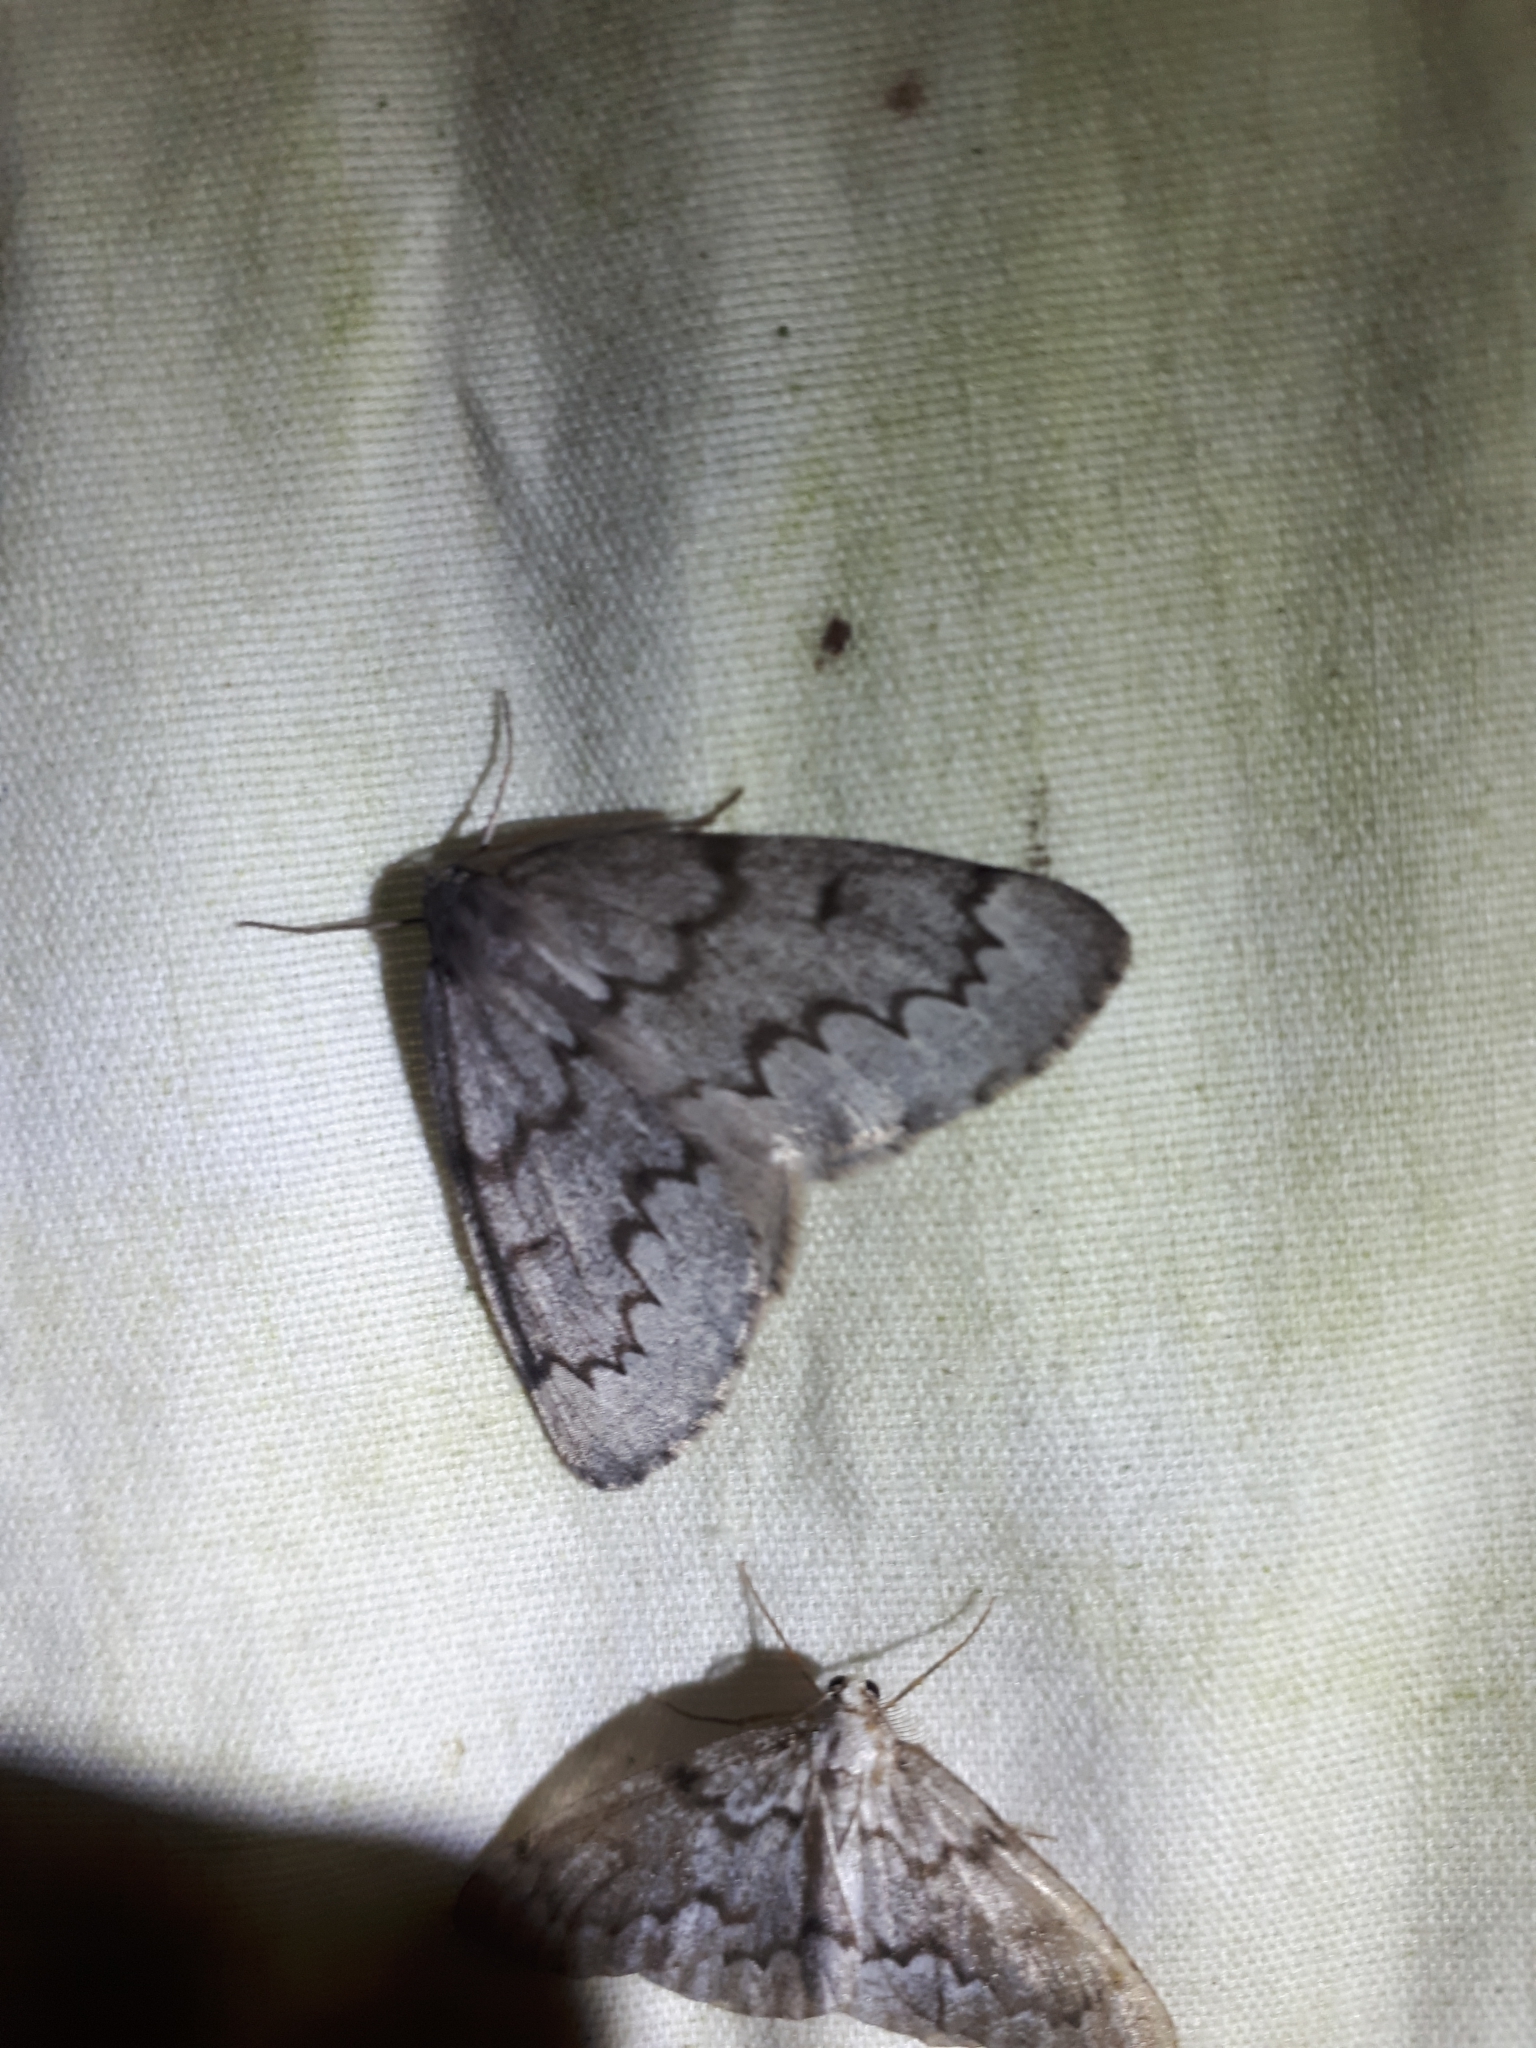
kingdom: Animalia
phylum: Arthropoda
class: Insecta
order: Lepidoptera
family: Geometridae
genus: Lambdina
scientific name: Lambdina fiscellaria
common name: Hemlock looper
